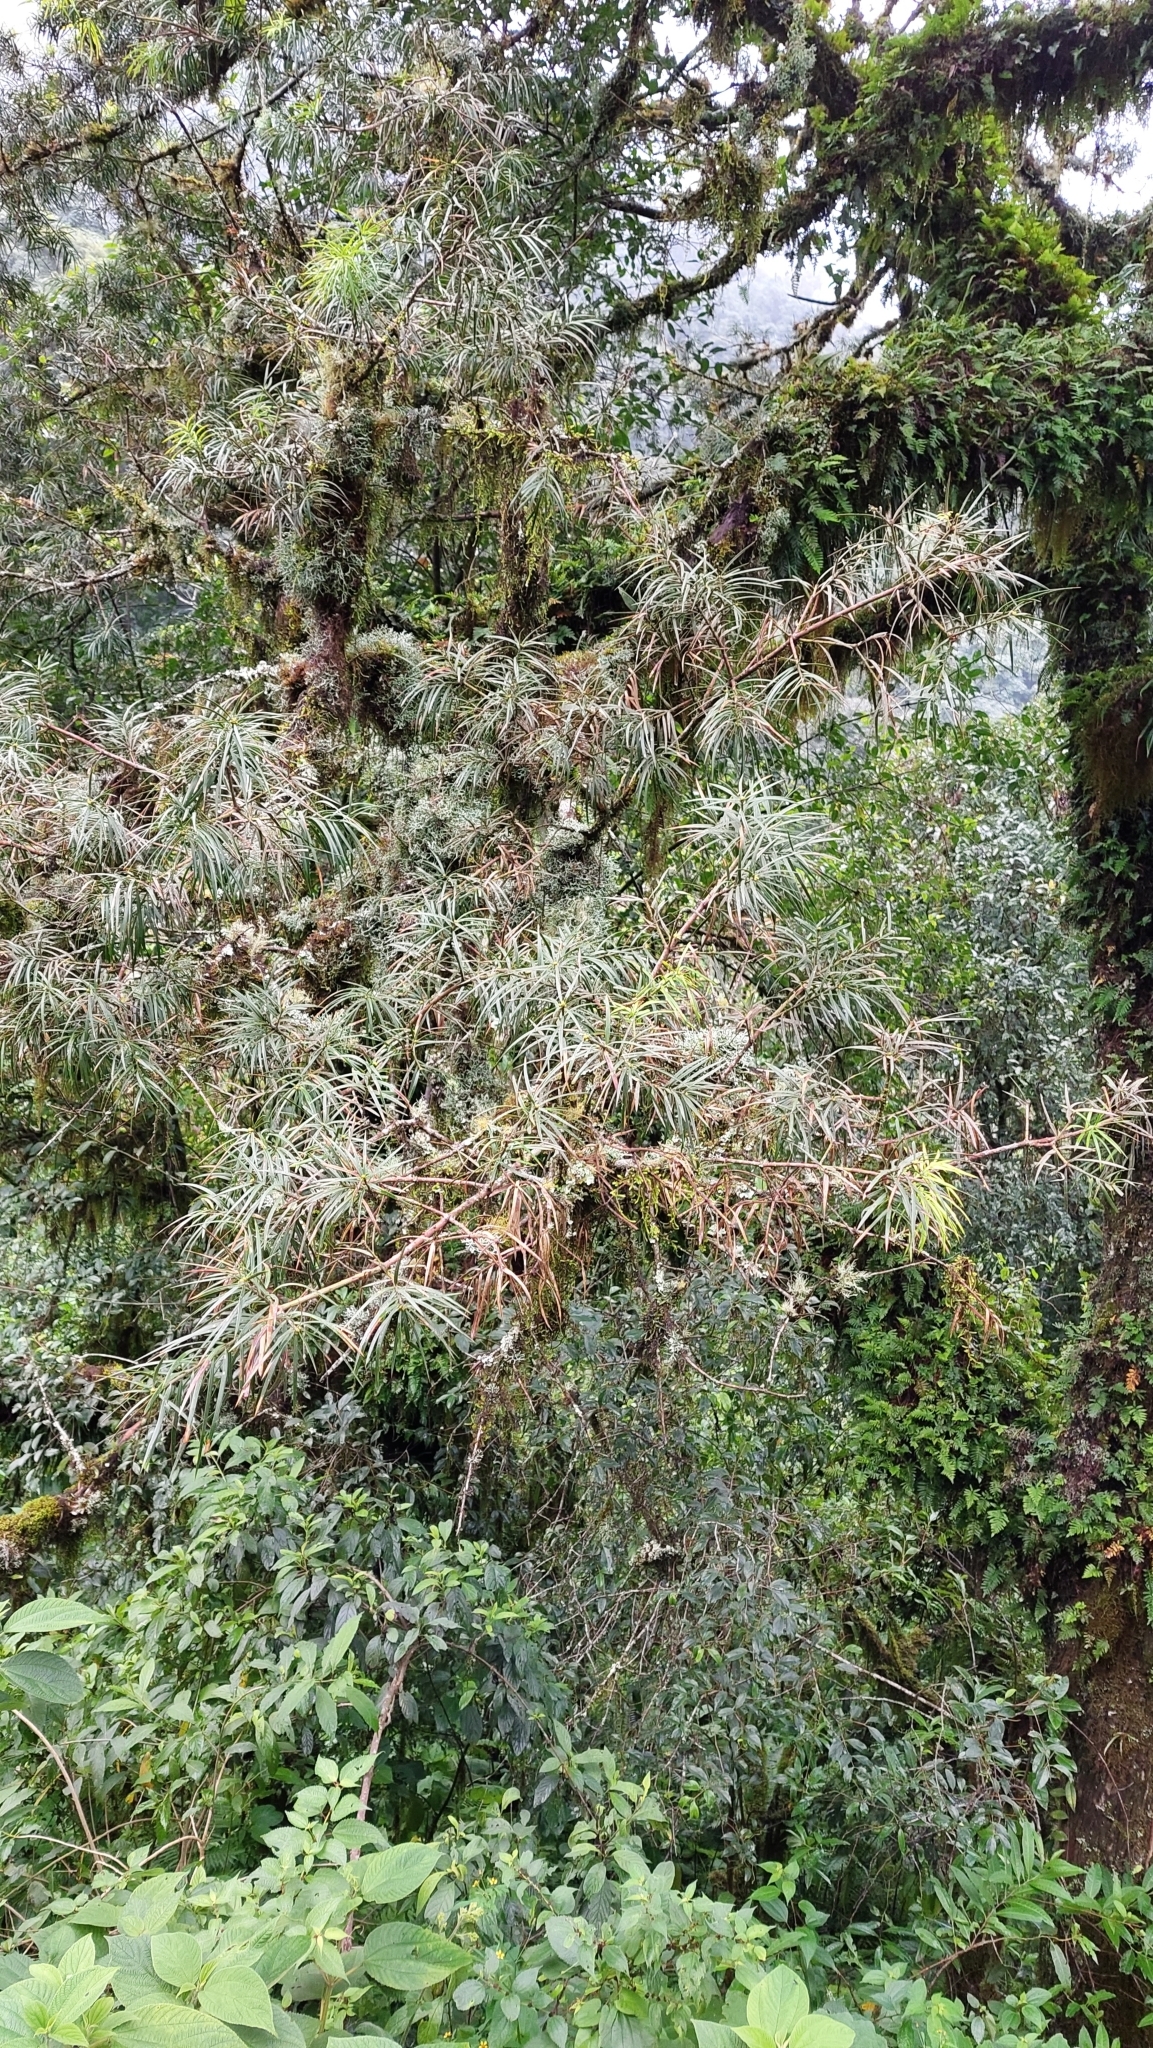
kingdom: Plantae
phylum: Tracheophyta
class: Pinopsida
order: Pinales
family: Podocarpaceae
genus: Podocarpus
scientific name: Podocarpus parlatorei
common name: Pino blanco
